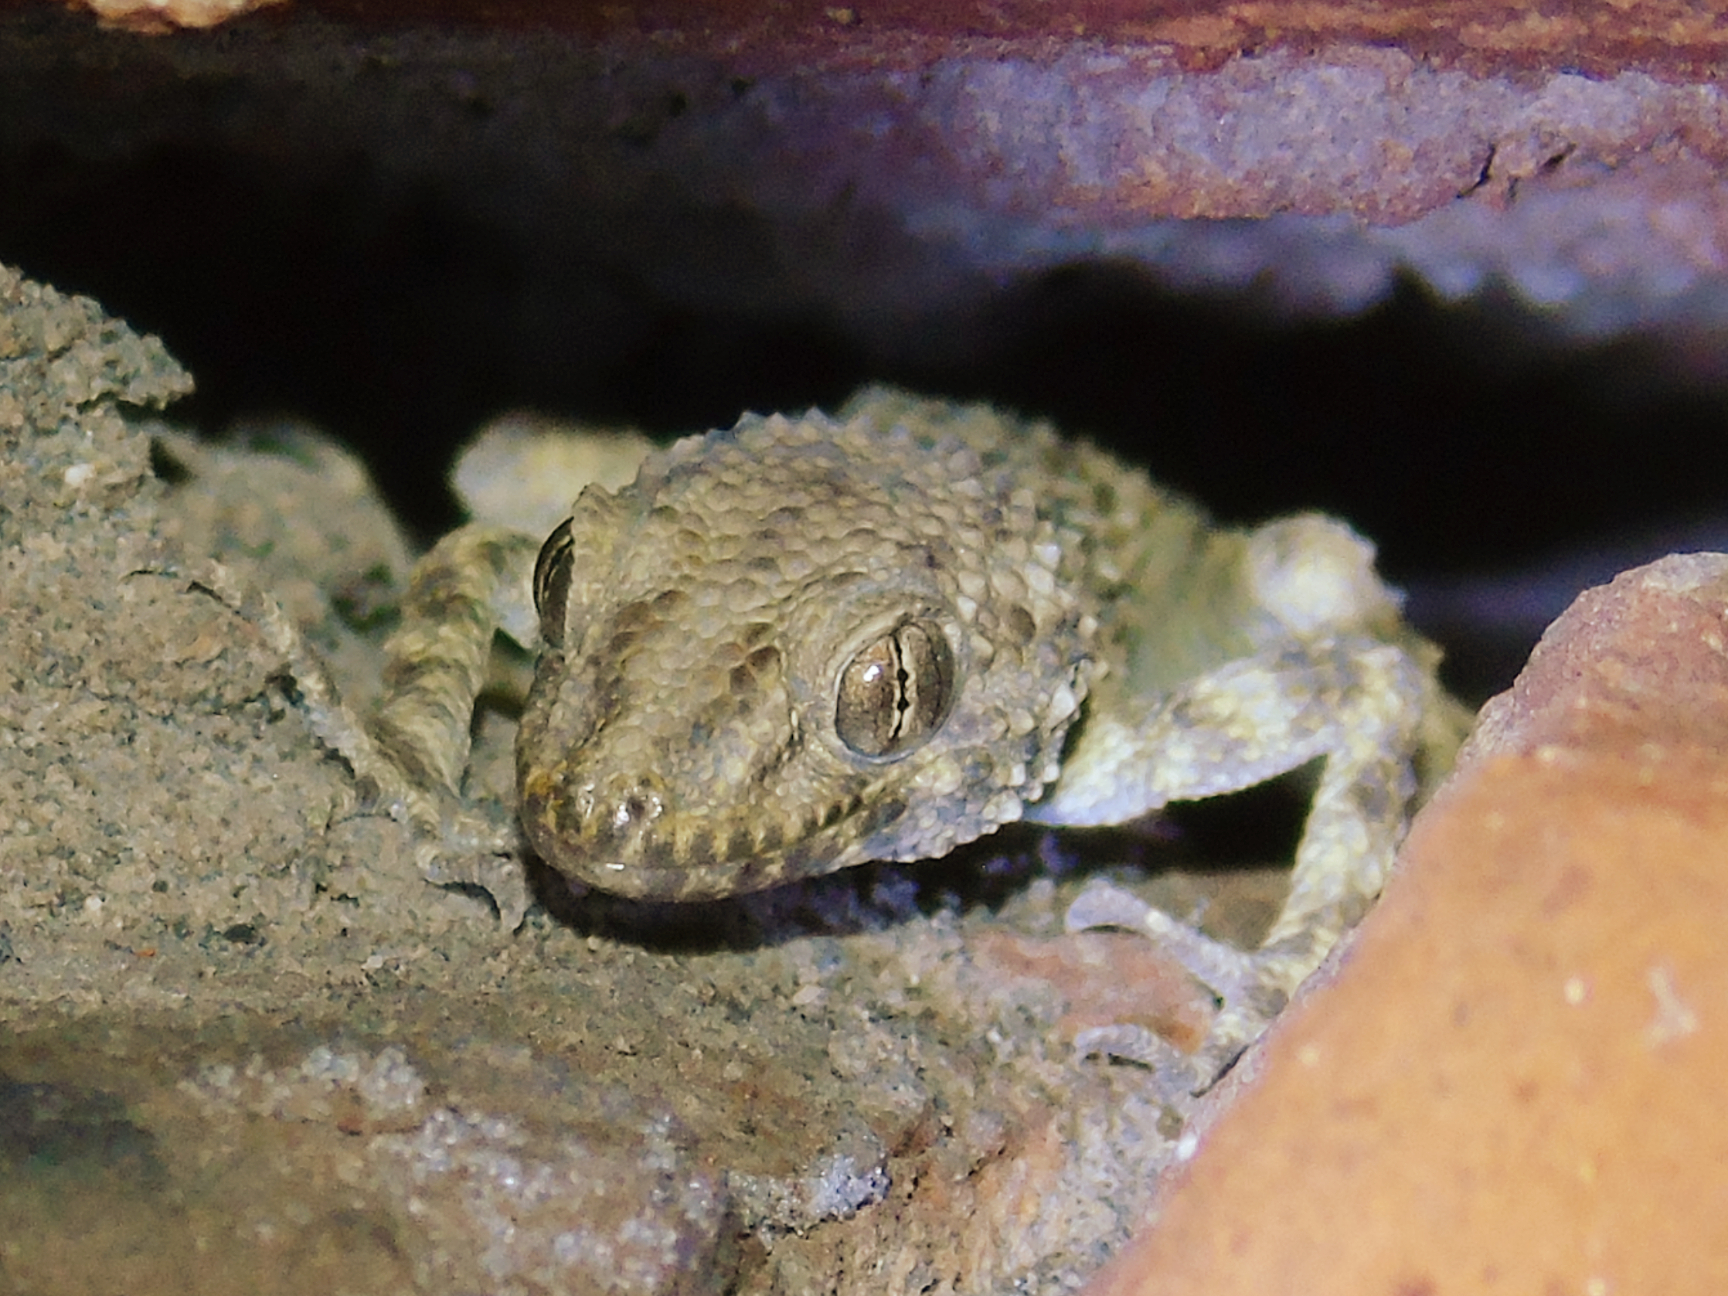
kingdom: Animalia
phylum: Chordata
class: Squamata
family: Gekkonidae
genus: Tenuidactylus
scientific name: Tenuidactylus caspius
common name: Caspian bent-toed gecko
